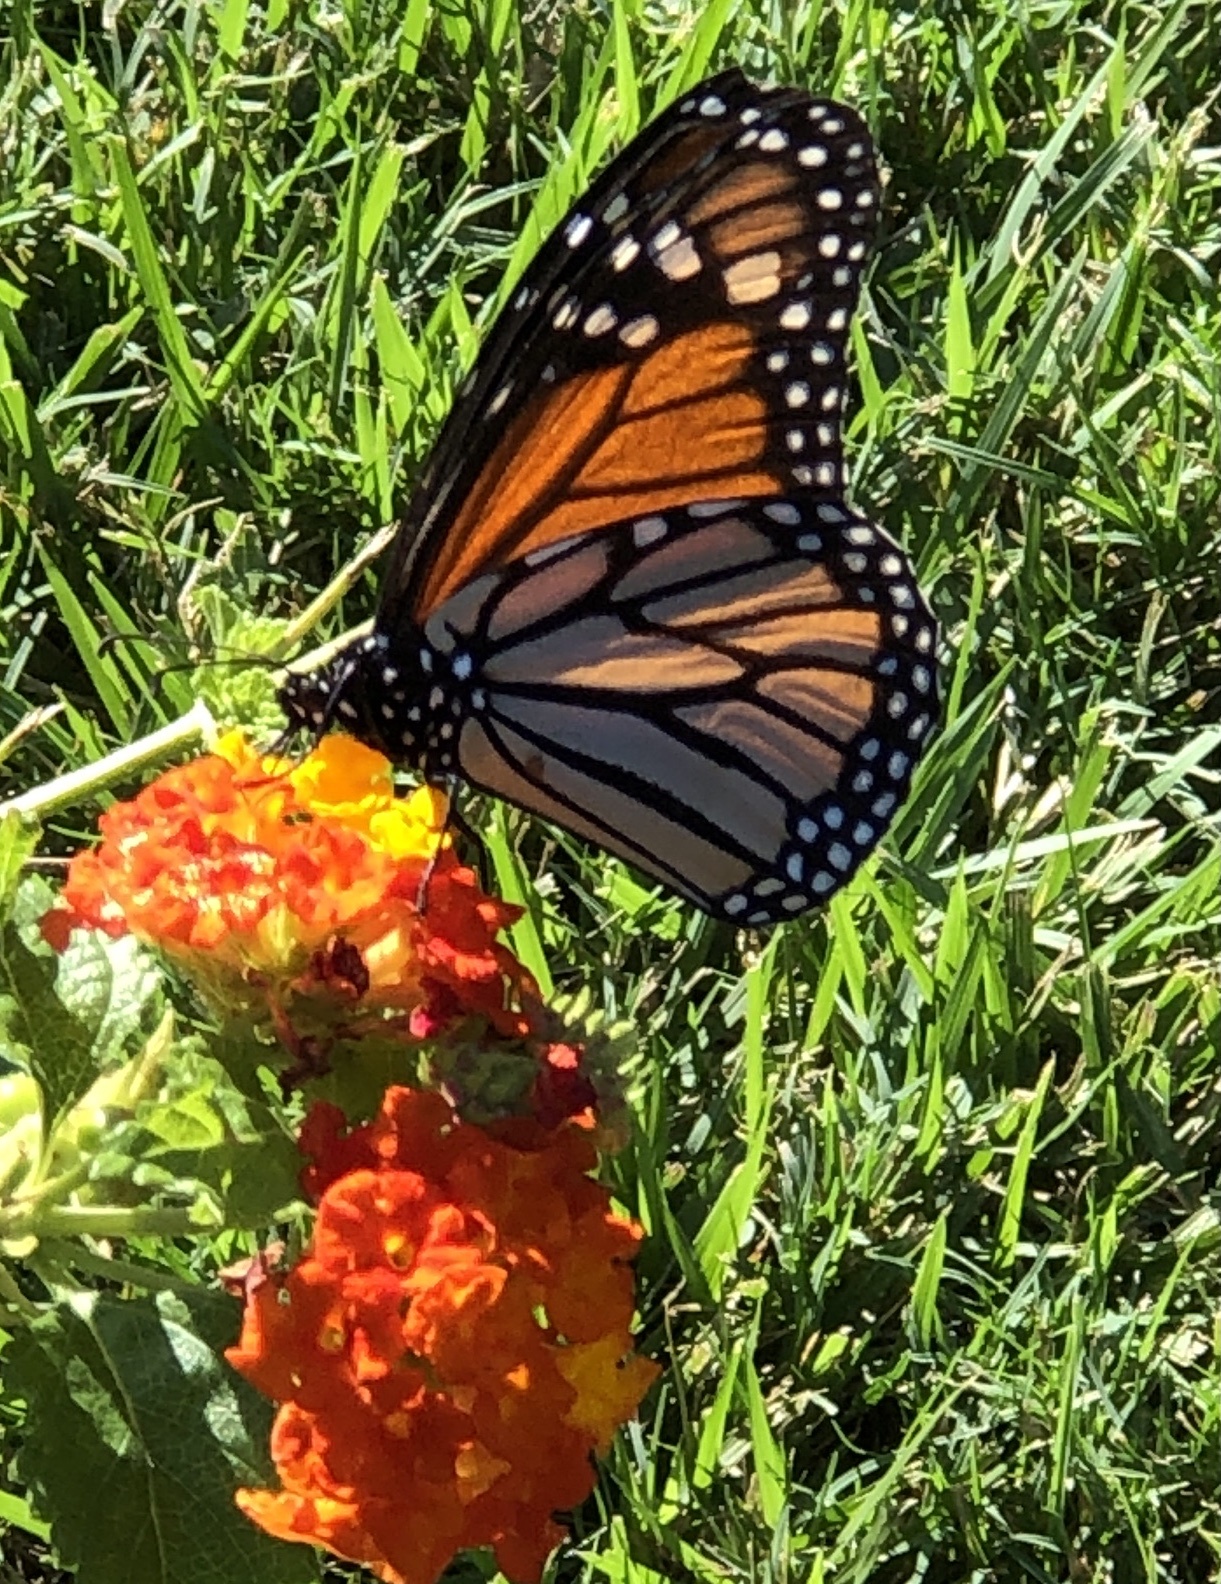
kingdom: Animalia
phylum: Arthropoda
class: Insecta
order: Lepidoptera
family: Nymphalidae
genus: Danaus
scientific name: Danaus plexippus
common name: Monarch
